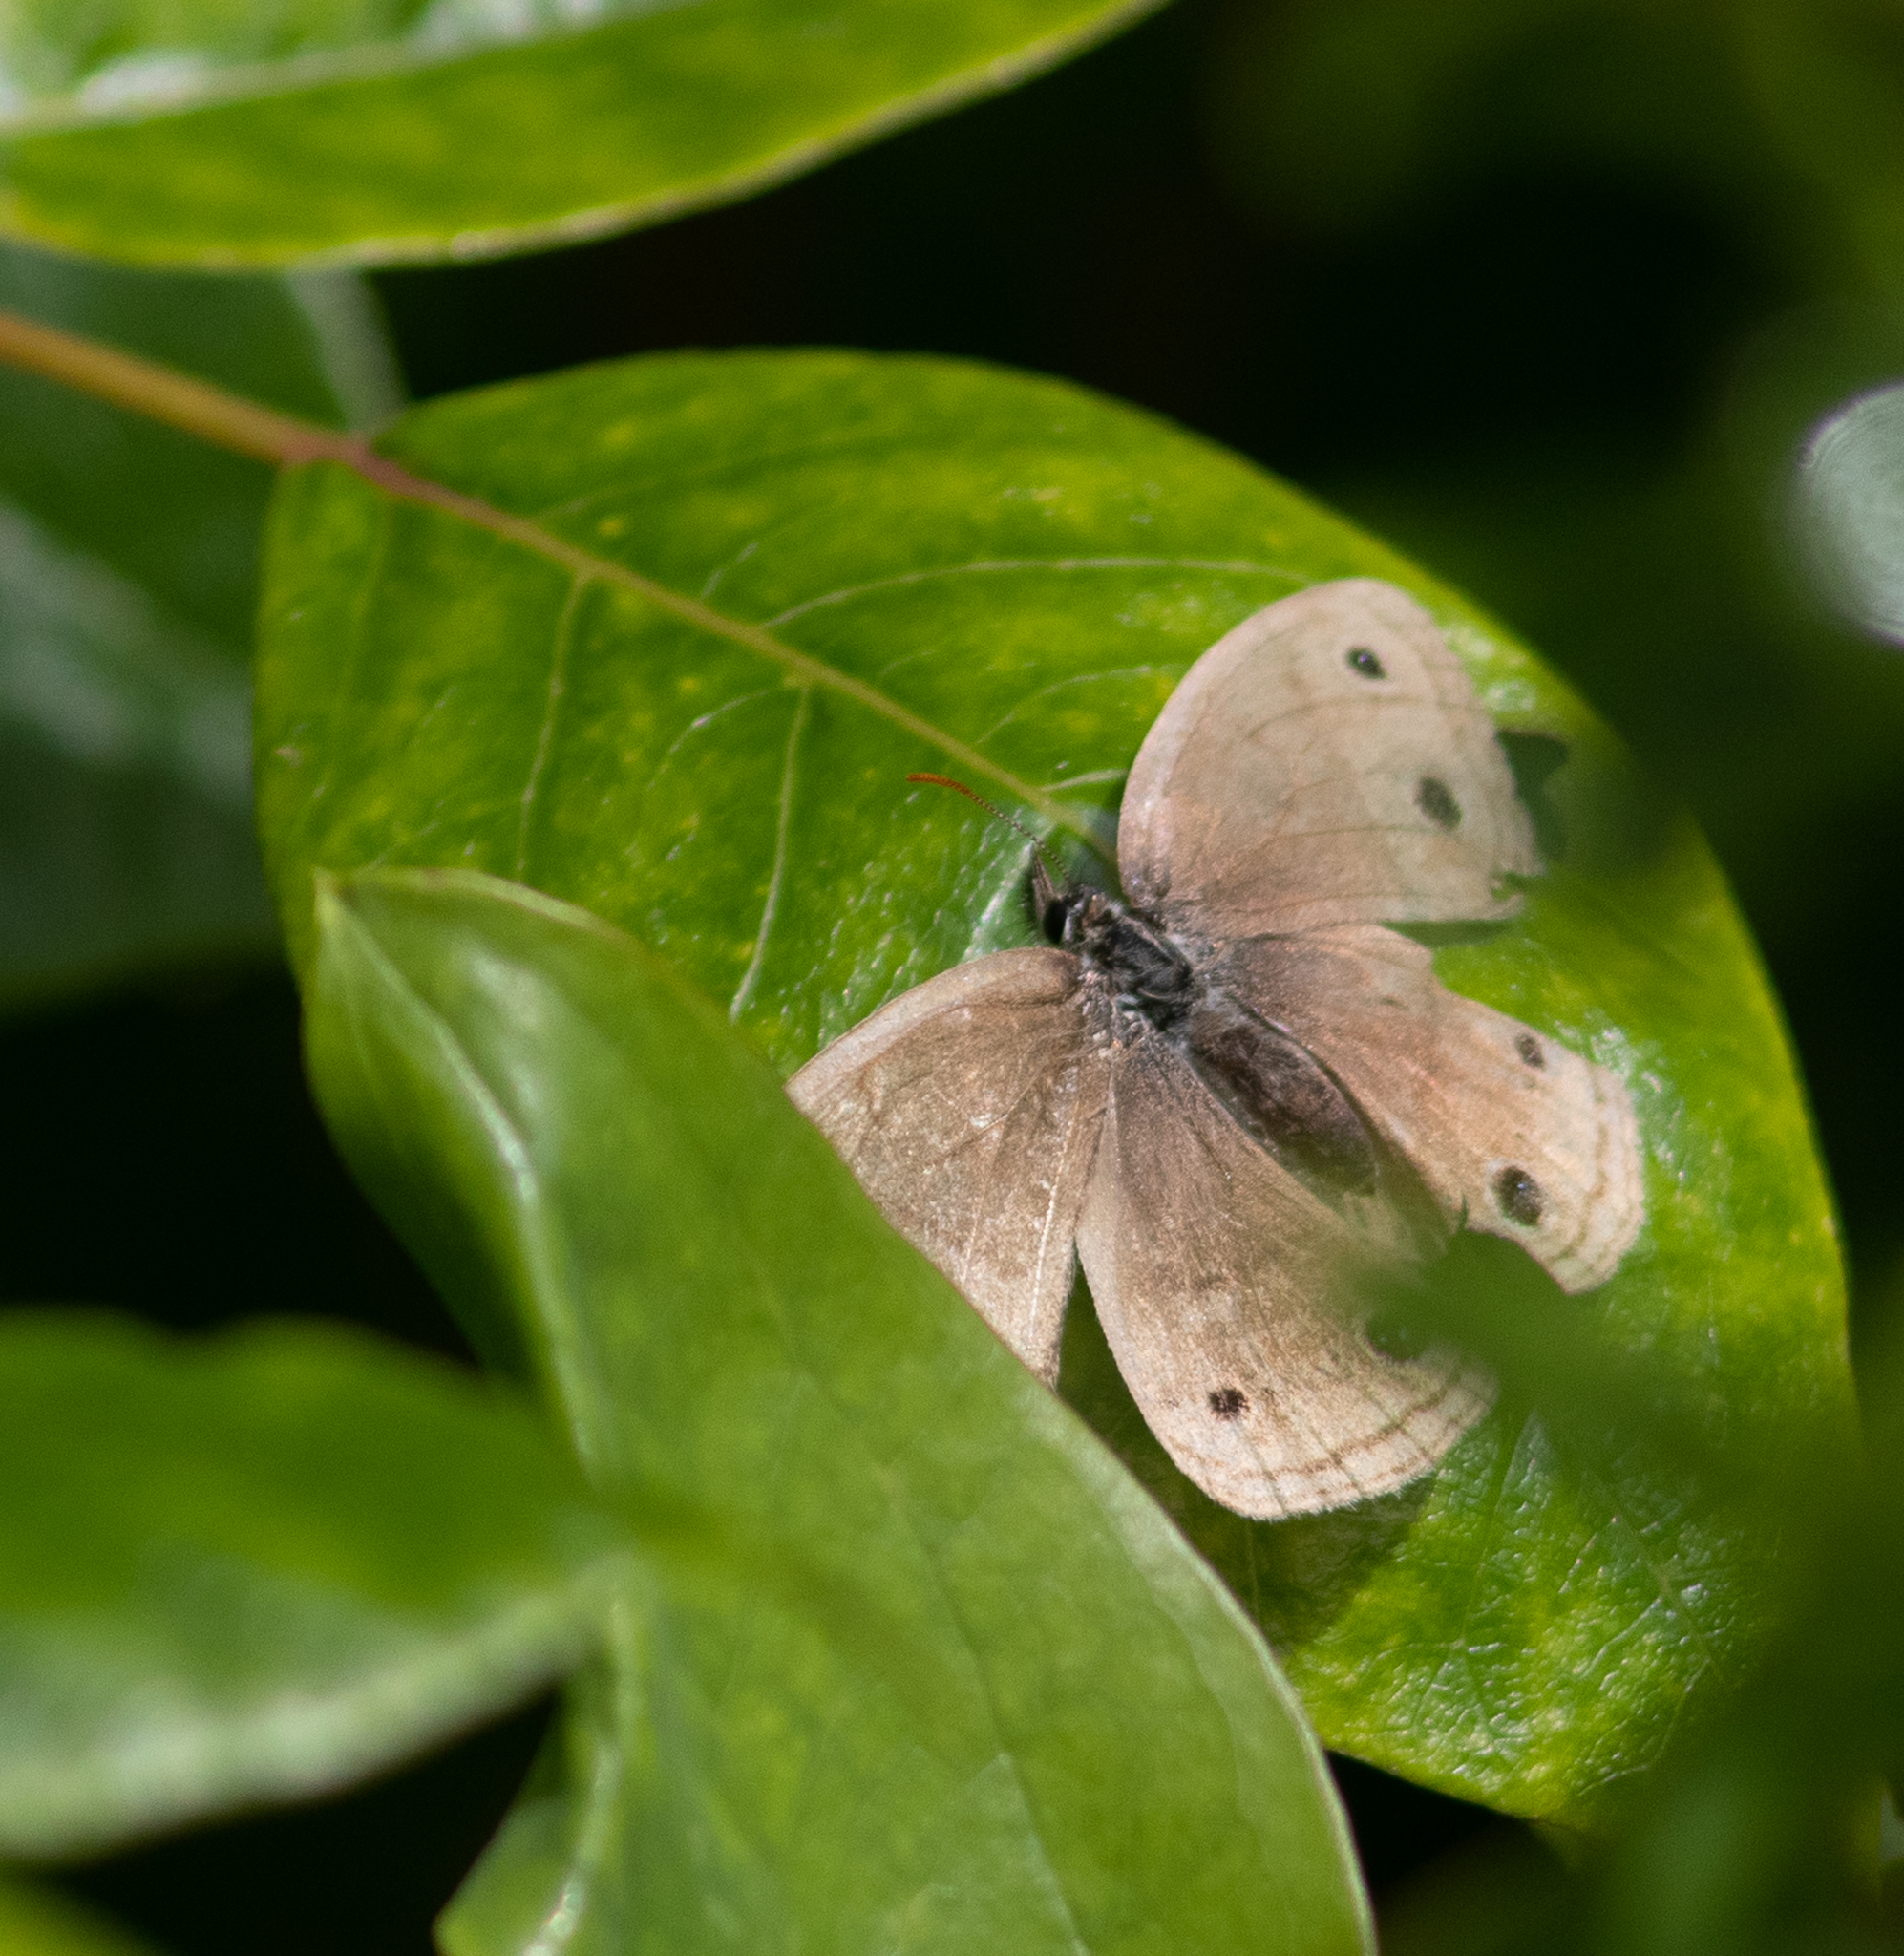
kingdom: Animalia
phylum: Arthropoda
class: Insecta
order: Lepidoptera
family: Nymphalidae
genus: Euptychia
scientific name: Euptychia cymela
